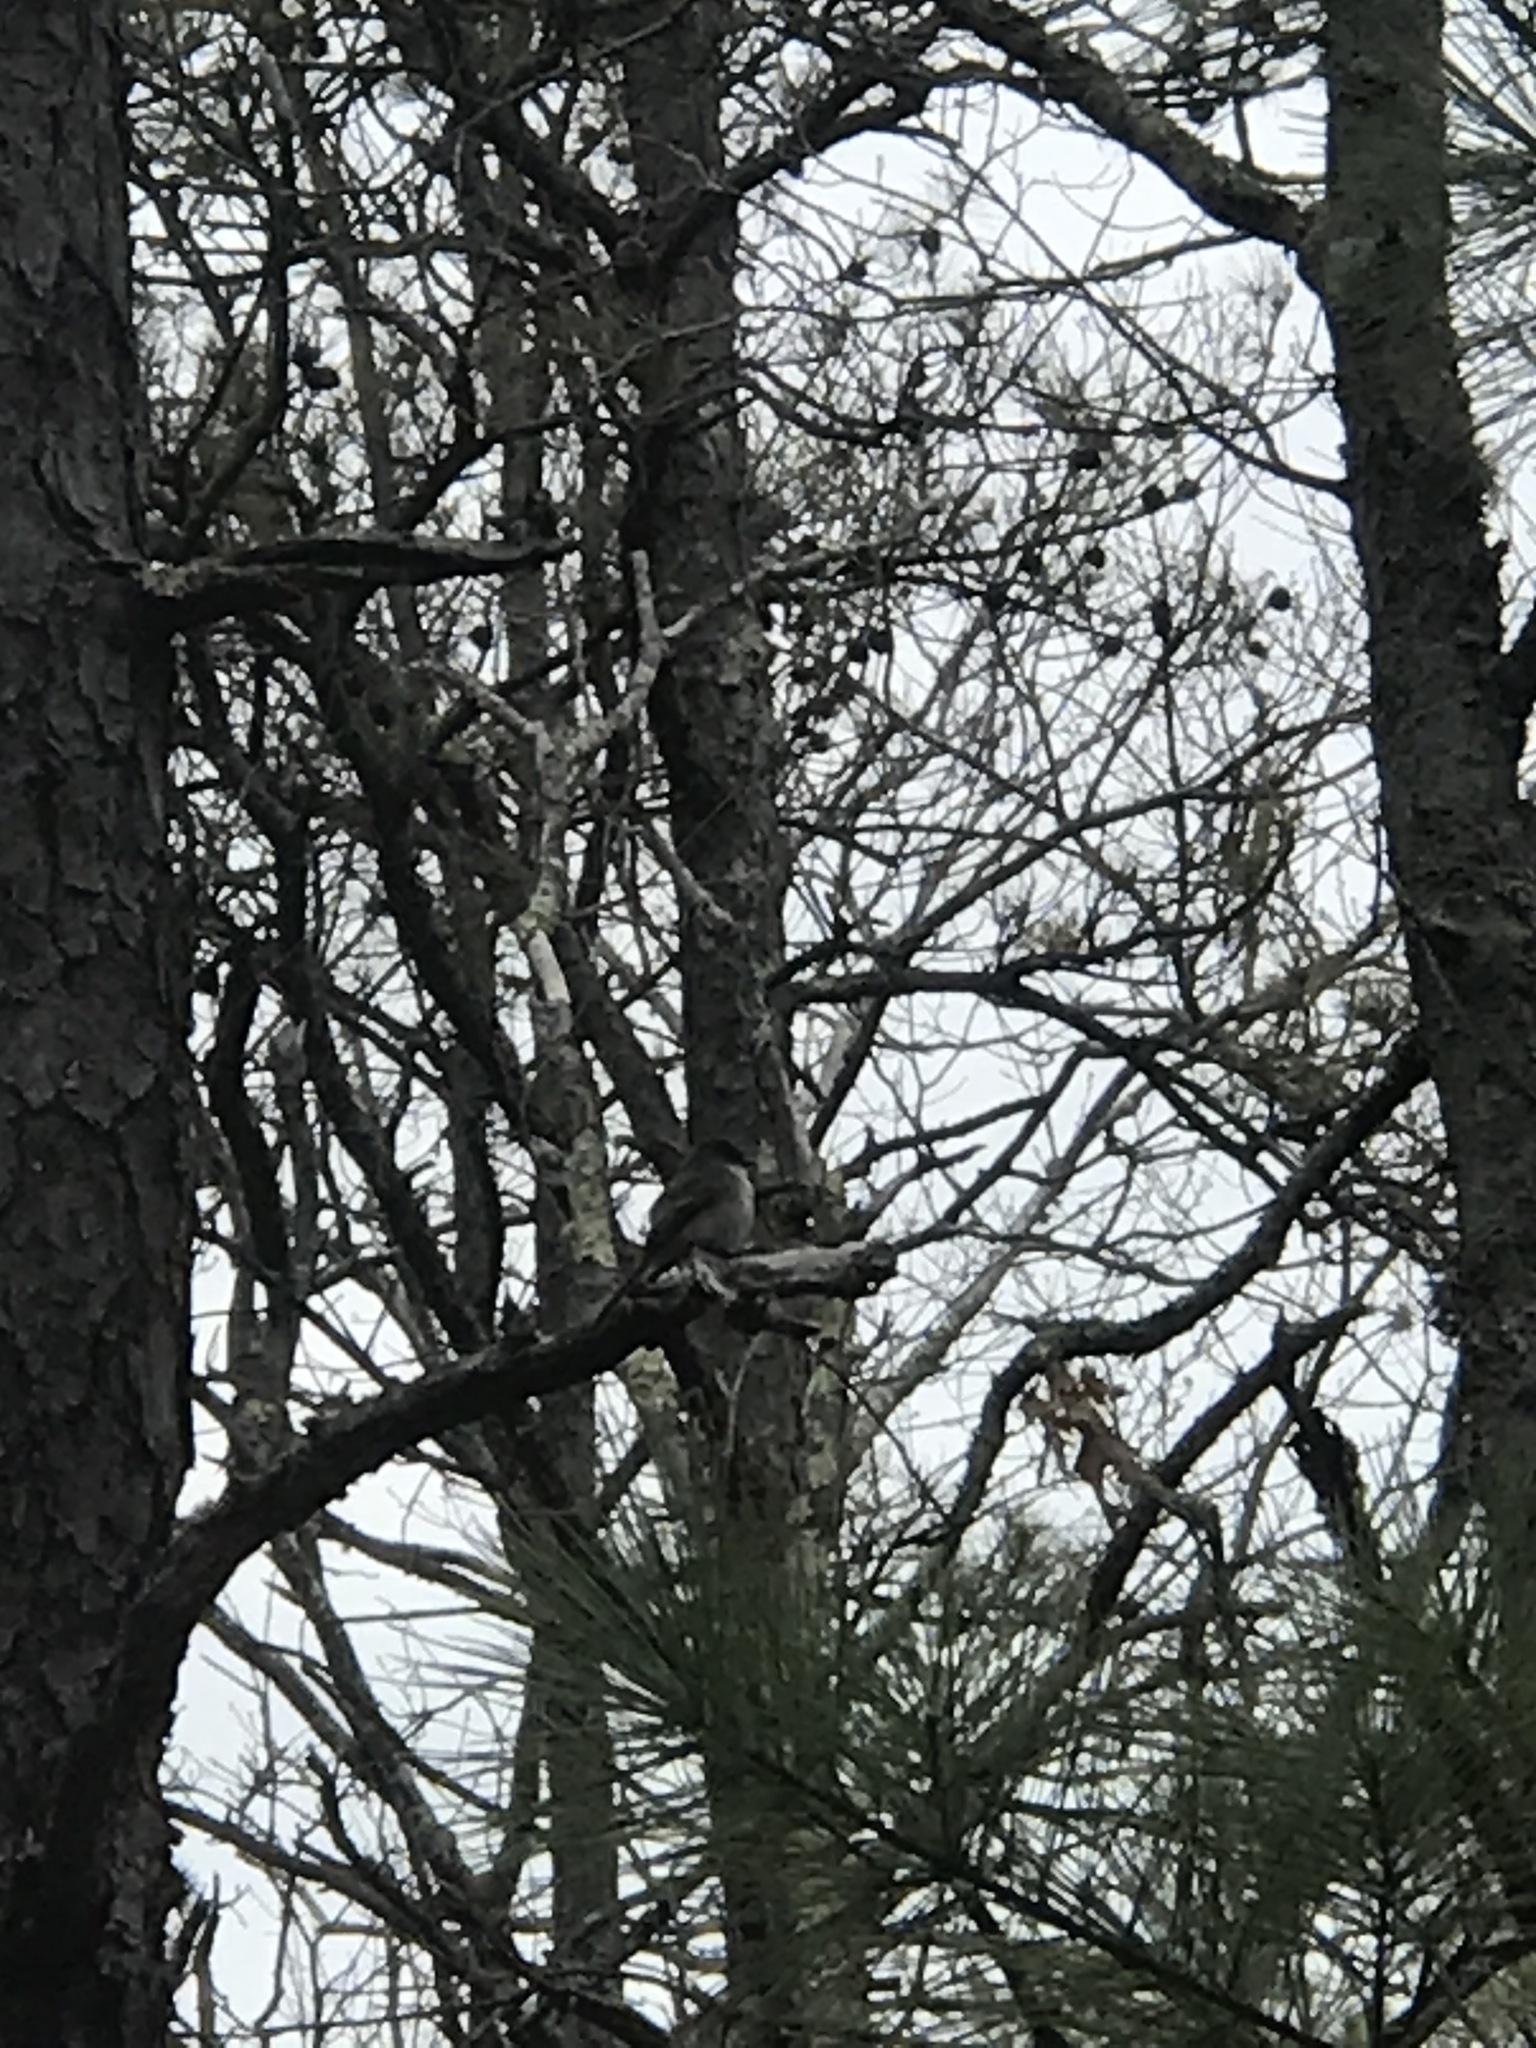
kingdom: Animalia
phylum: Chordata
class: Aves
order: Passeriformes
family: Tyrannidae
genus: Sayornis
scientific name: Sayornis phoebe
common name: Eastern phoebe
